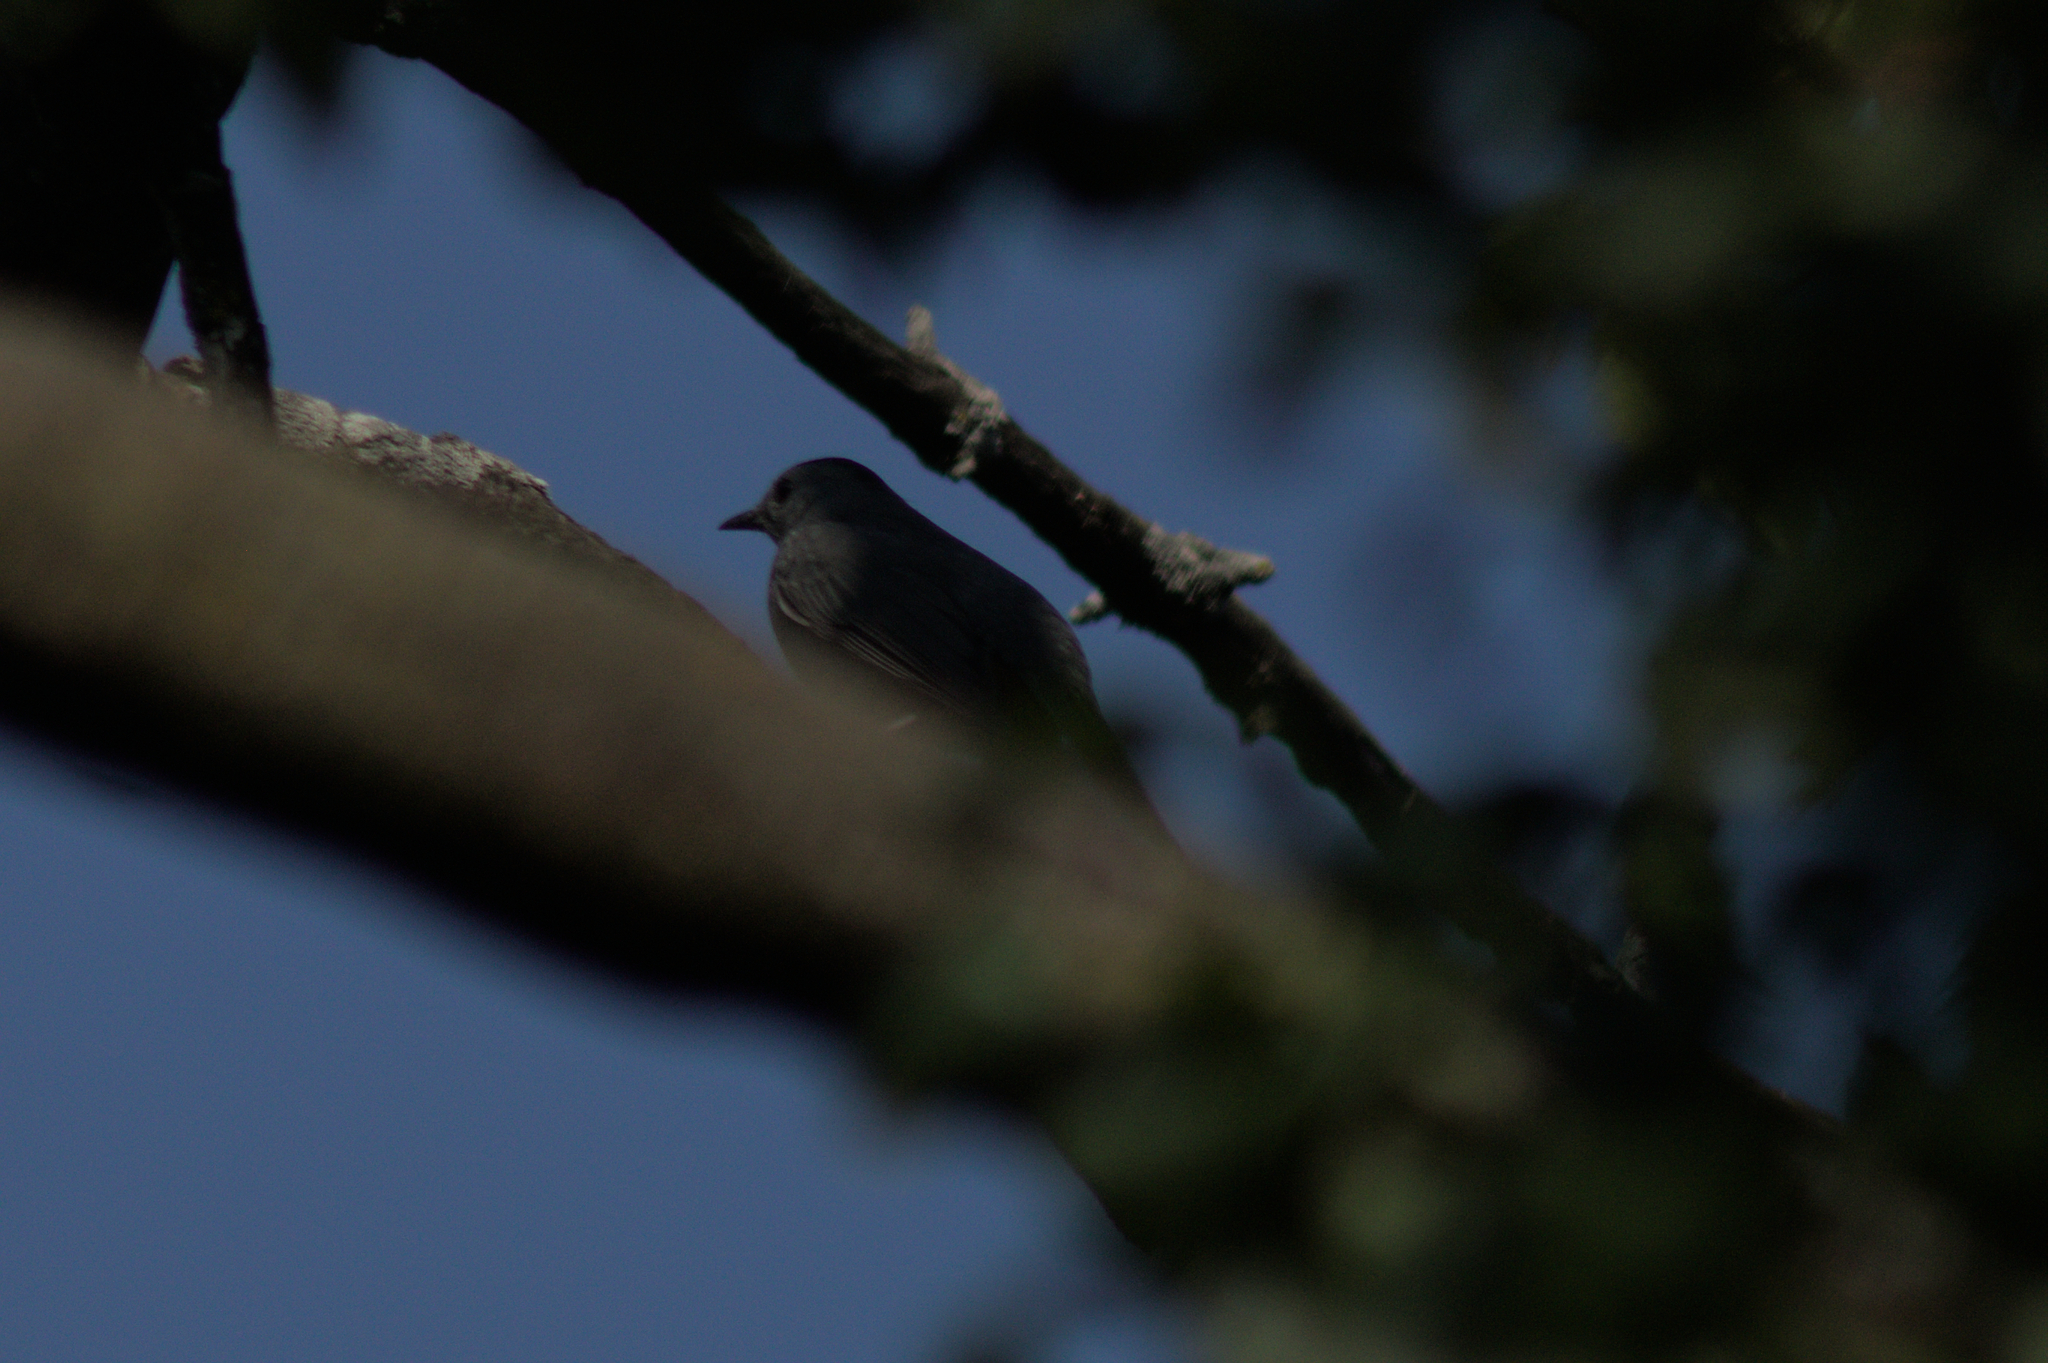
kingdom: Animalia
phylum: Chordata
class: Aves
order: Passeriformes
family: Mimidae
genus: Dumetella
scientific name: Dumetella carolinensis
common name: Gray catbird
